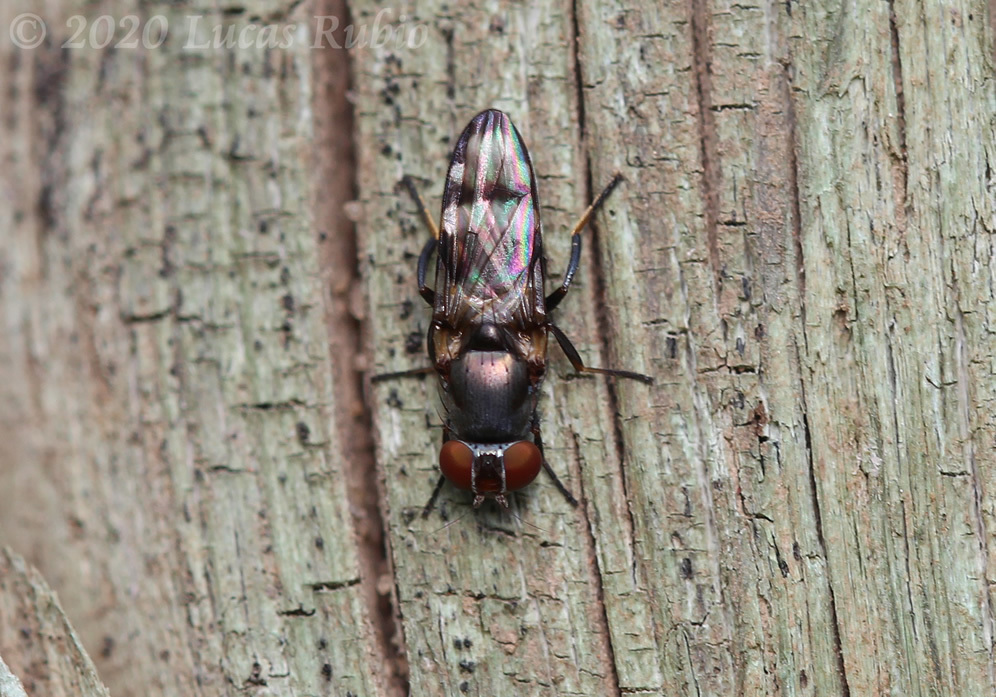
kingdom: Animalia
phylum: Arthropoda
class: Insecta
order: Diptera
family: Ulidiidae
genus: Euxesta
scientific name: Euxesta eluta
